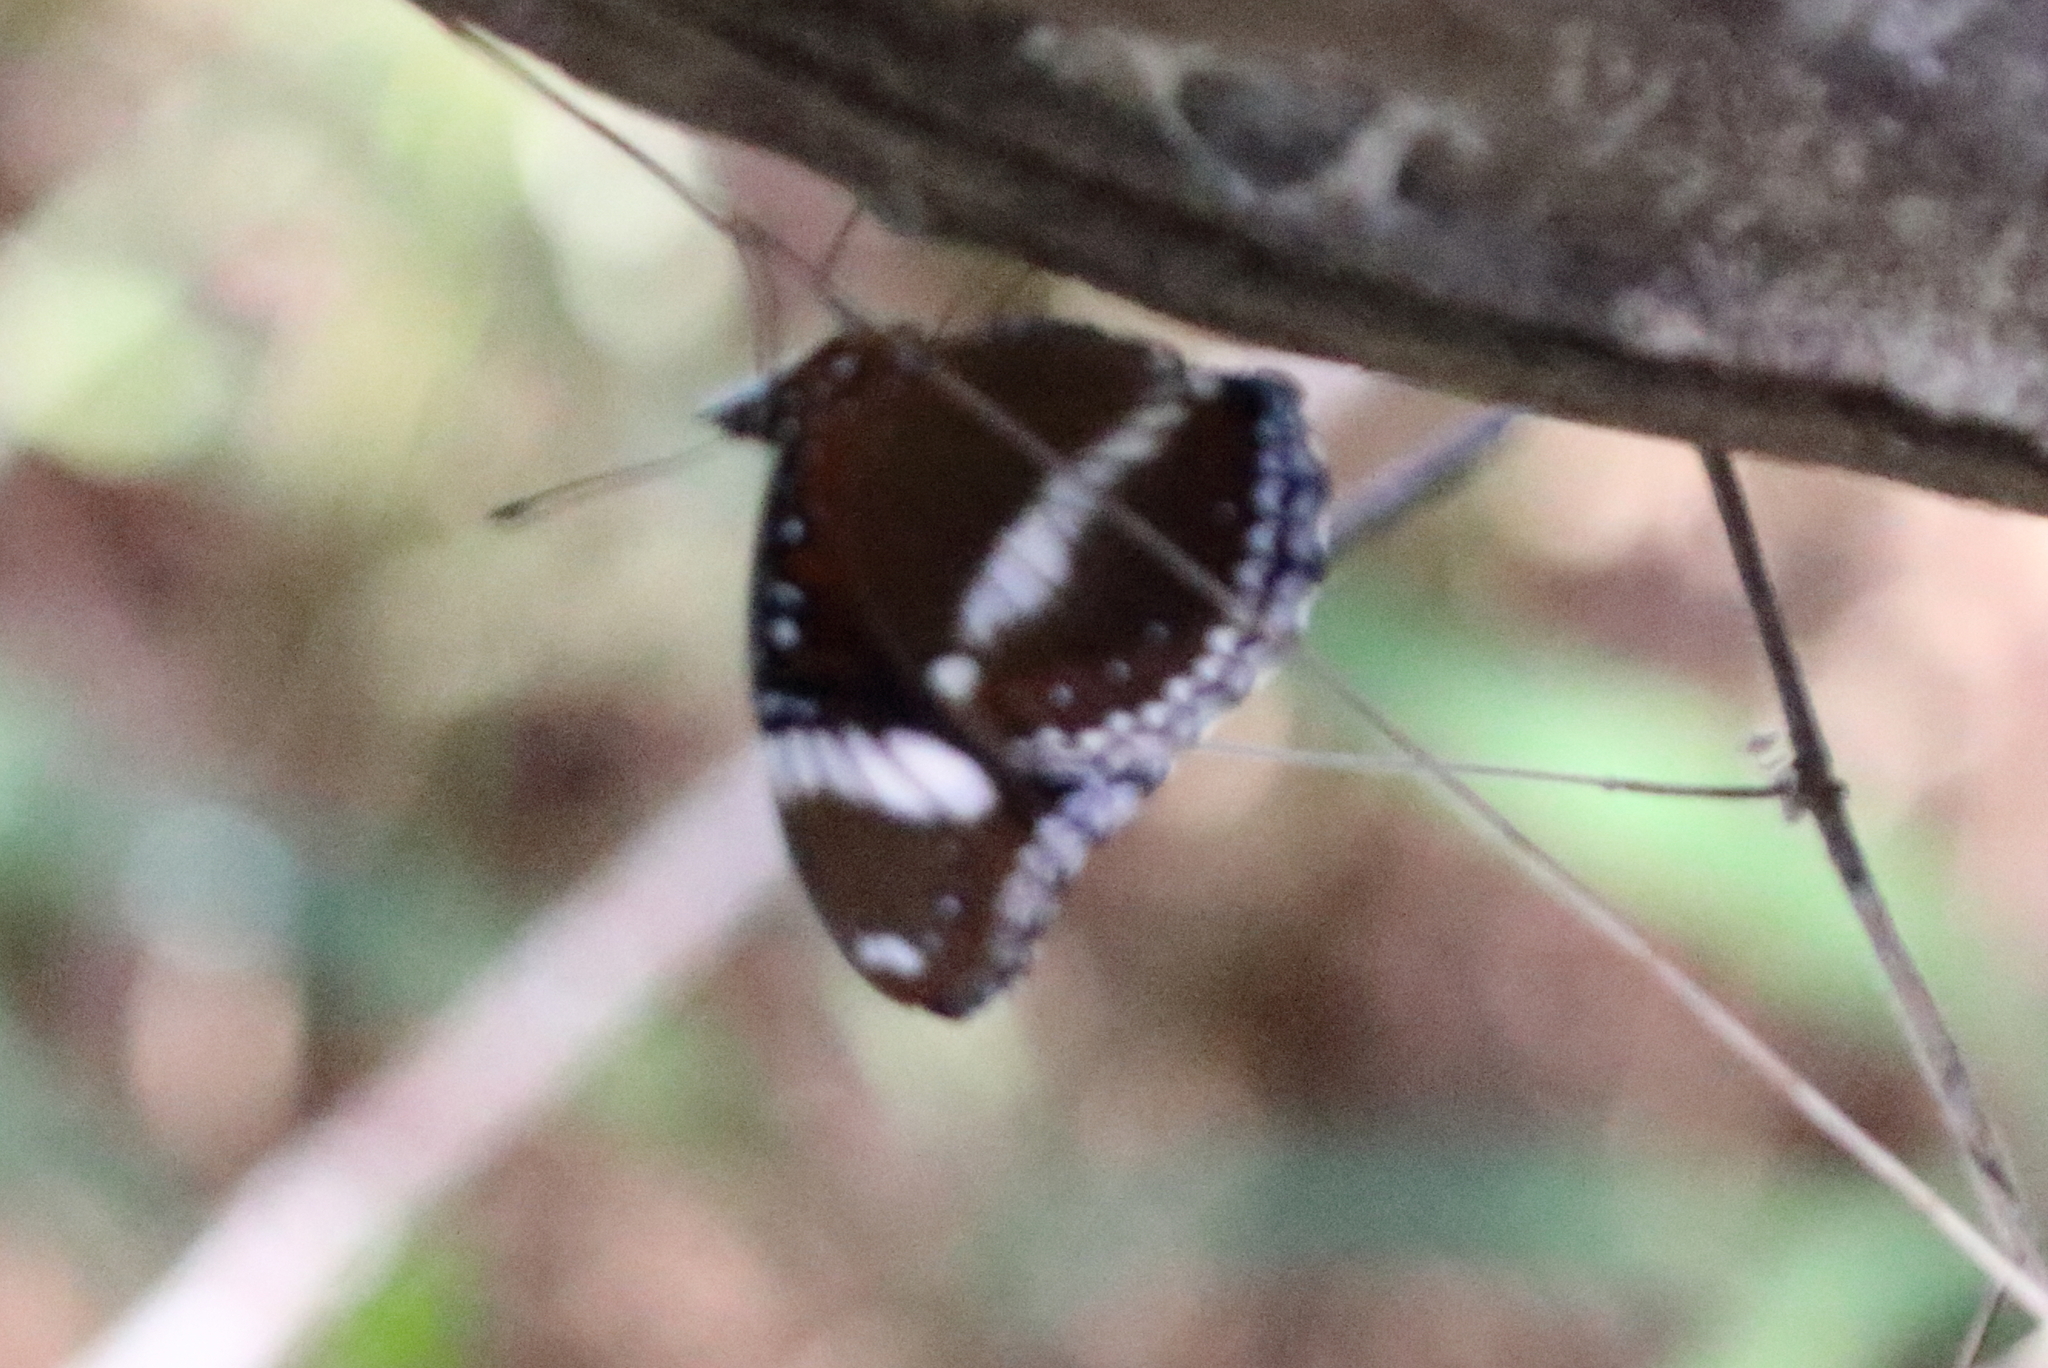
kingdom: Animalia
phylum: Arthropoda
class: Insecta
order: Lepidoptera
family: Nymphalidae
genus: Hypolimnas
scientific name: Hypolimnas bolina
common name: Great eggfly
